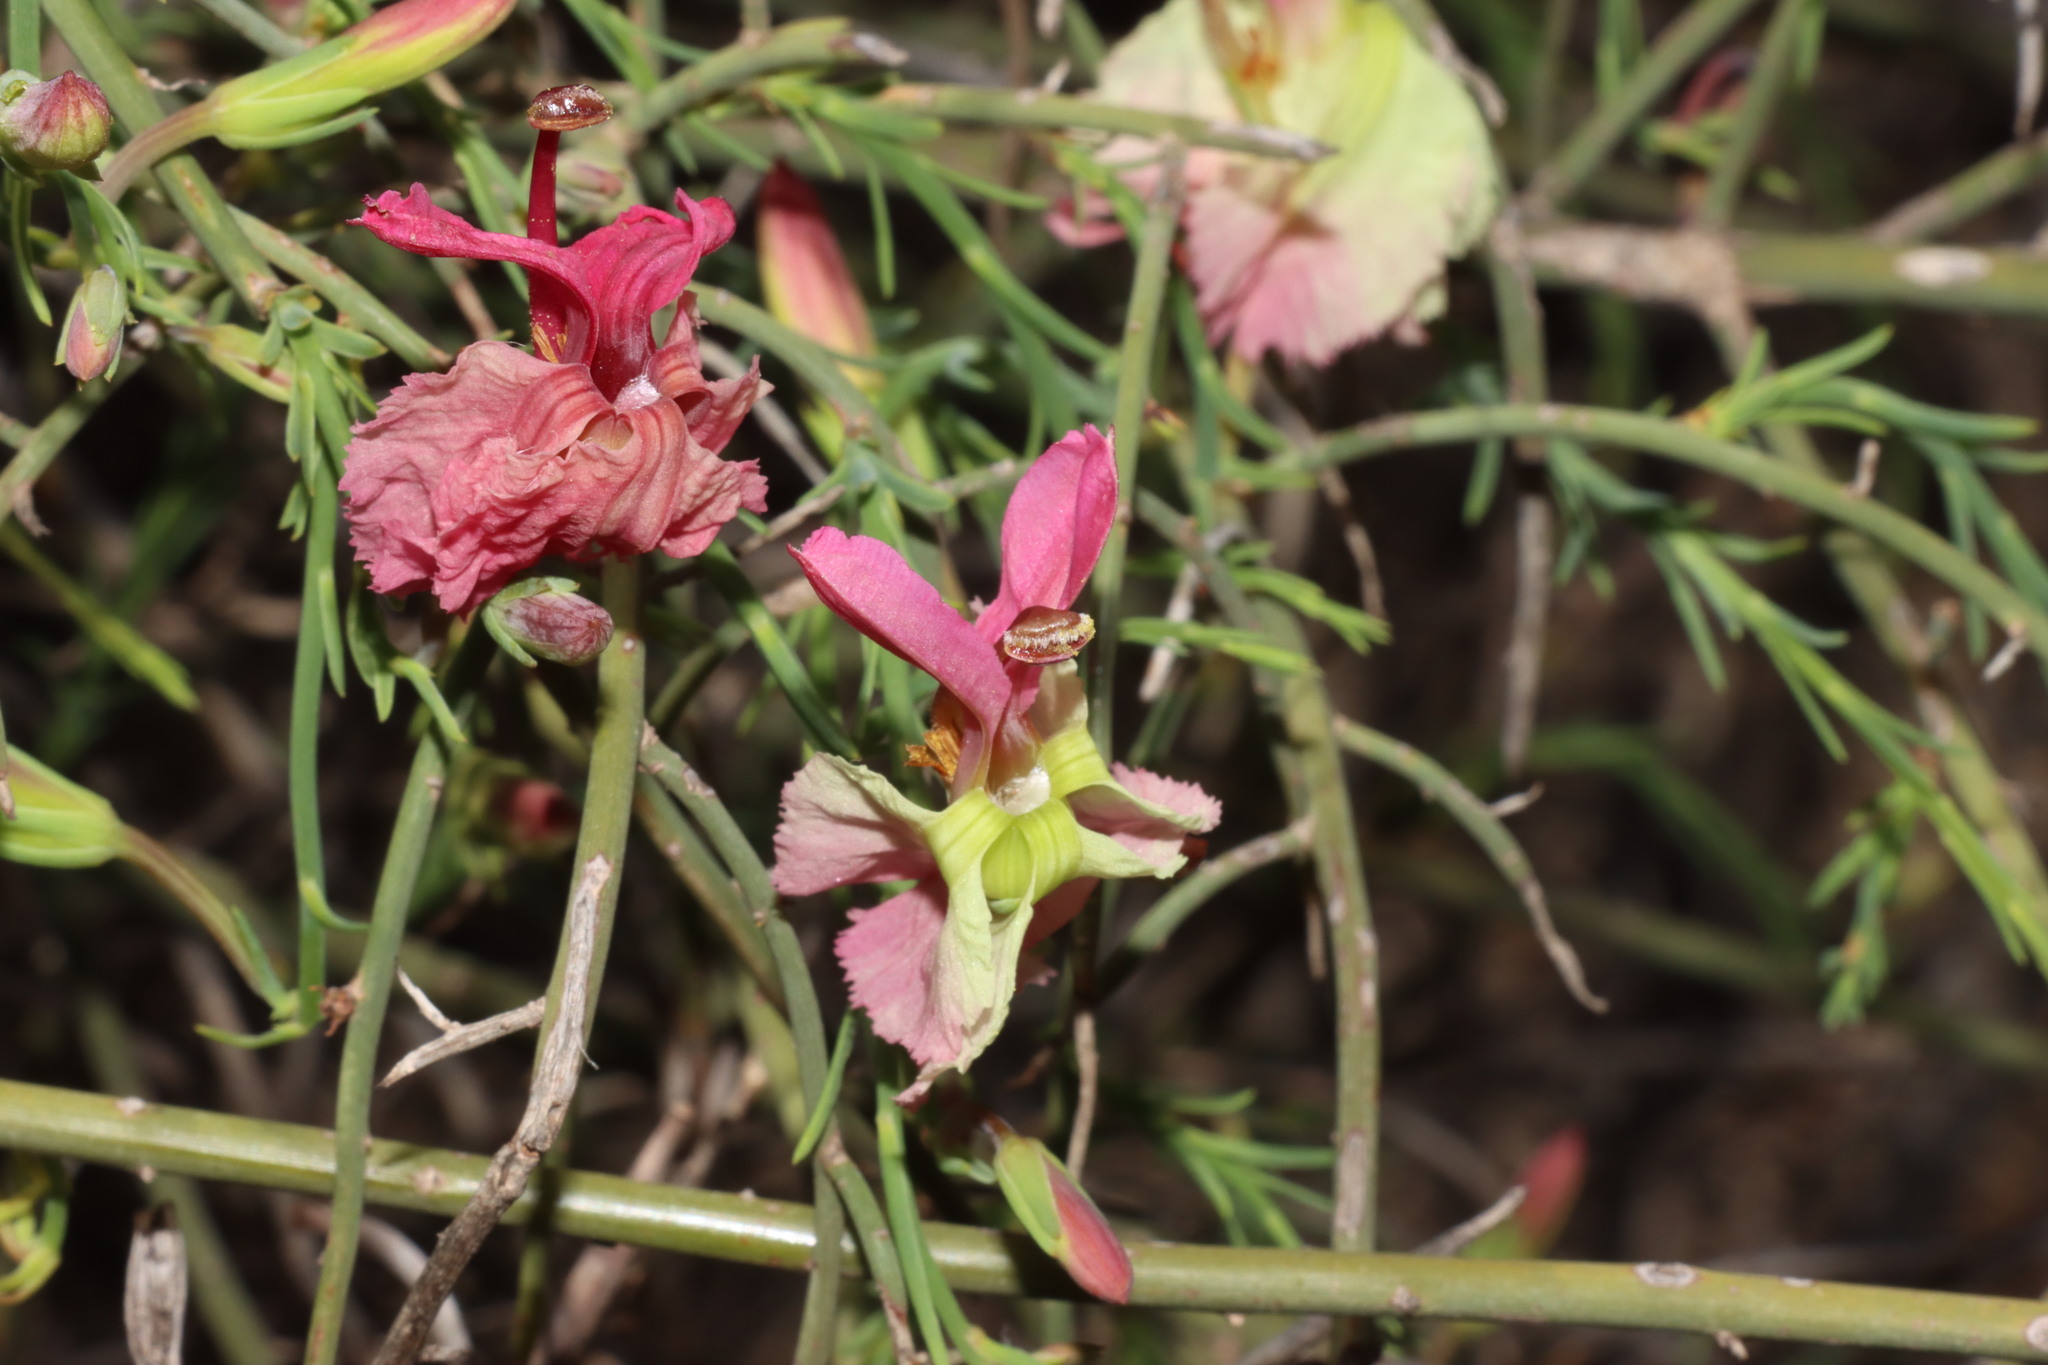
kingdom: Plantae
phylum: Tracheophyta
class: Magnoliopsida
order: Asterales
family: Goodeniaceae
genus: Lechenaultia
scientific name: Lechenaultia linarioides
